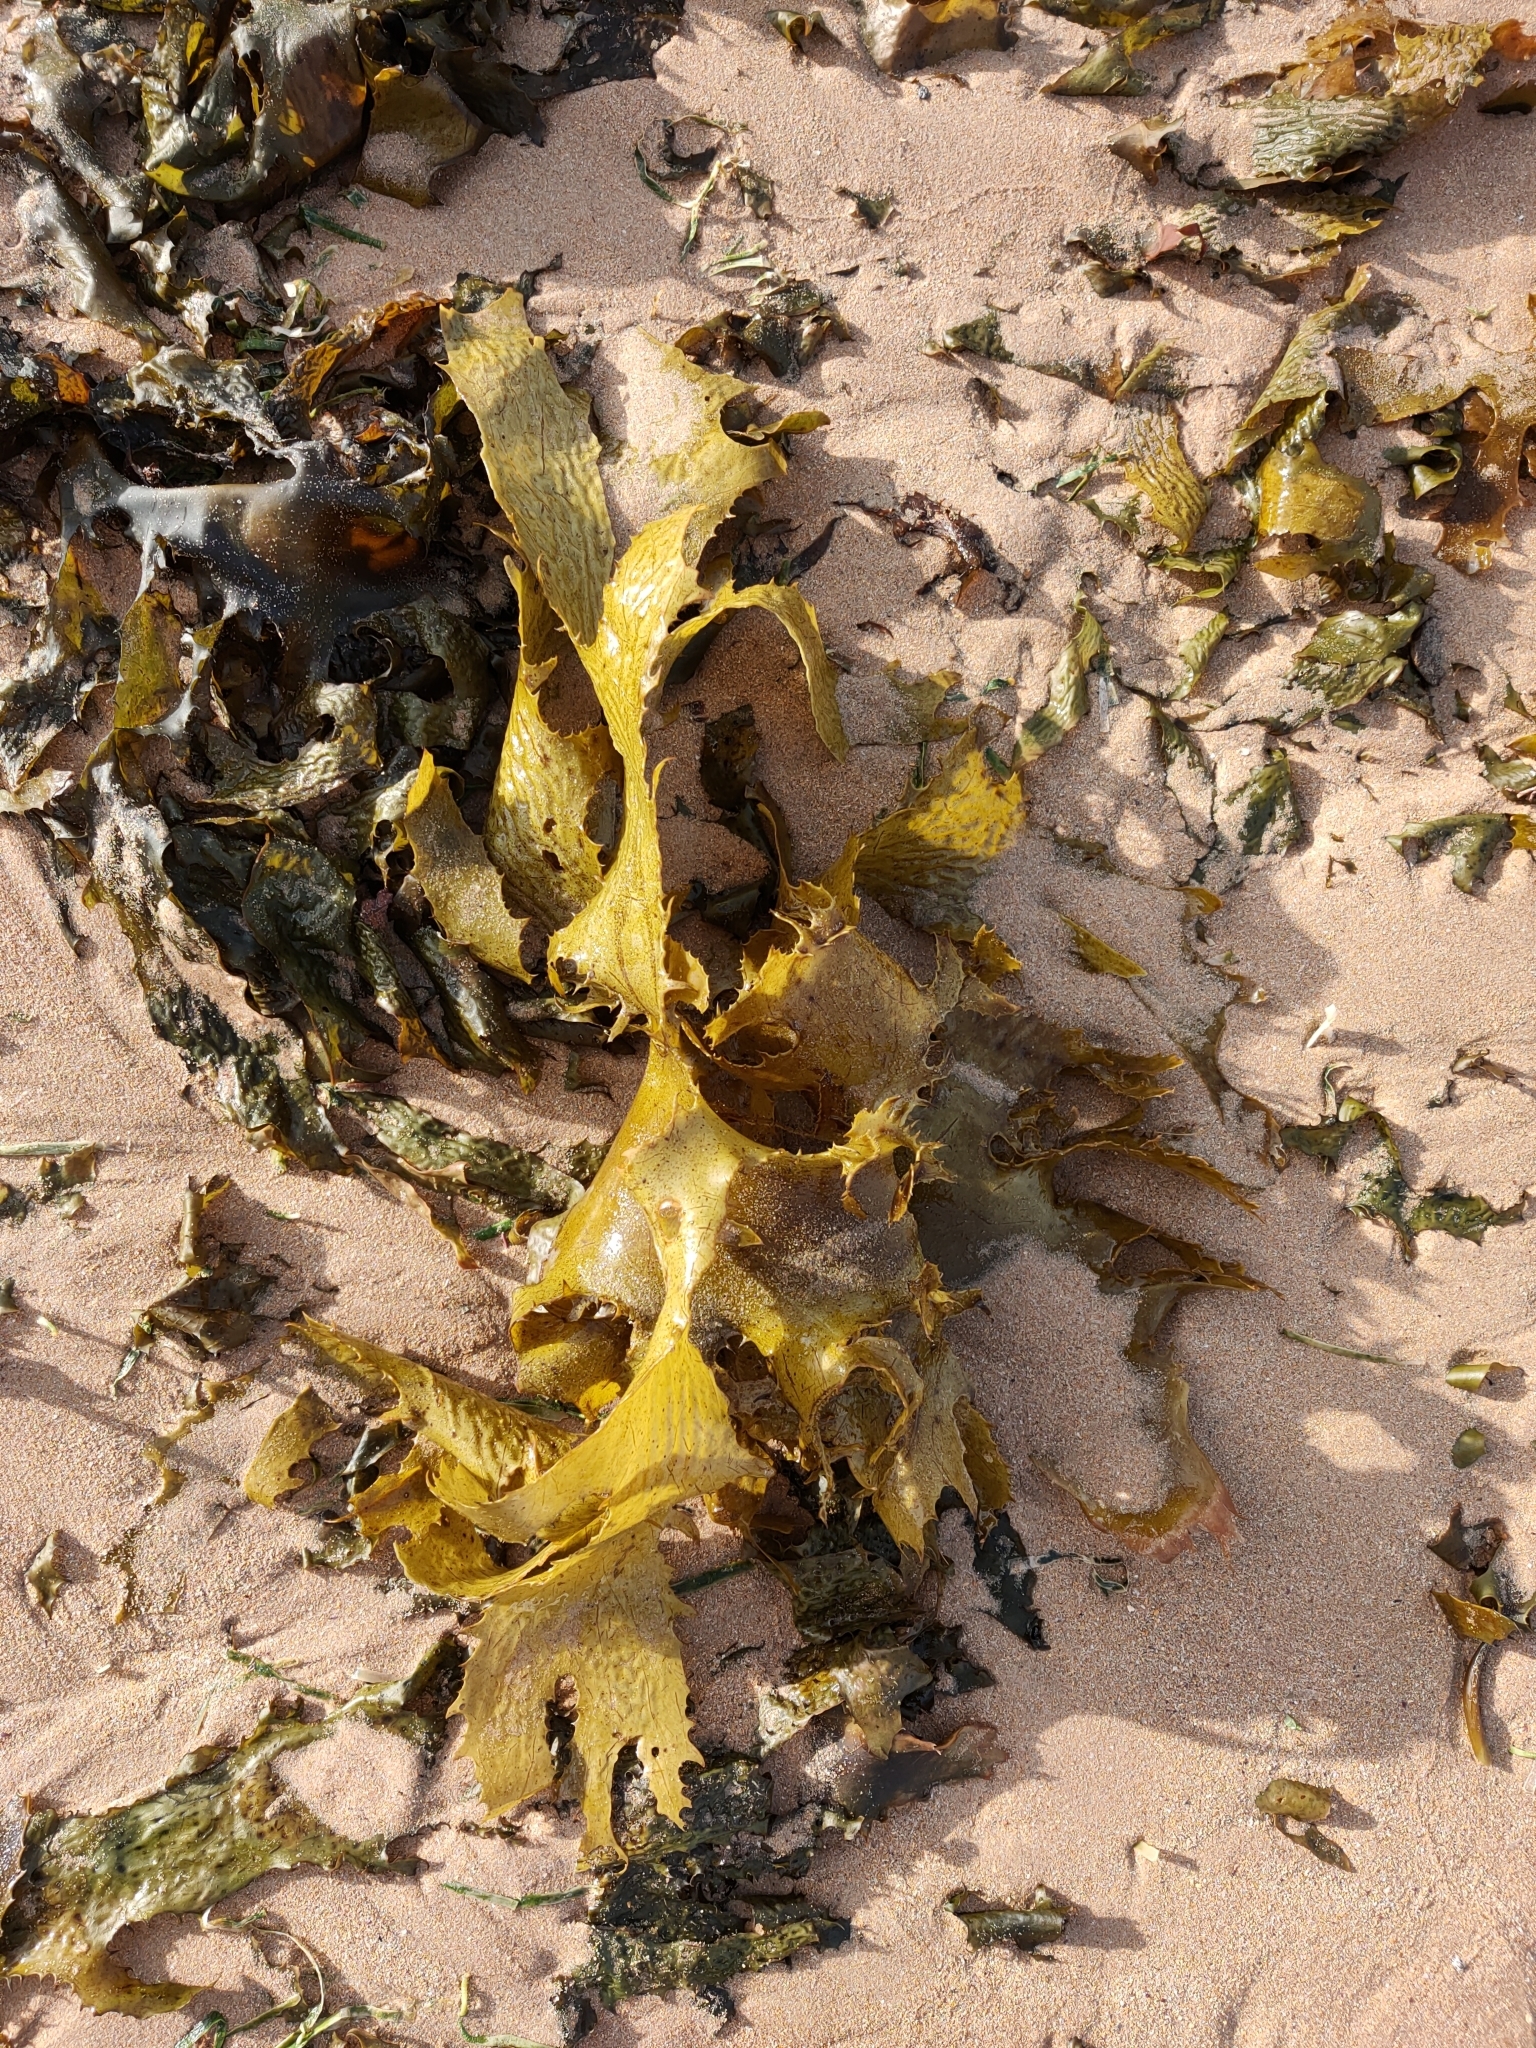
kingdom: Chromista
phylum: Ochrophyta
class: Phaeophyceae
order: Laminariales
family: Lessoniaceae
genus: Ecklonia
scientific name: Ecklonia radiata
